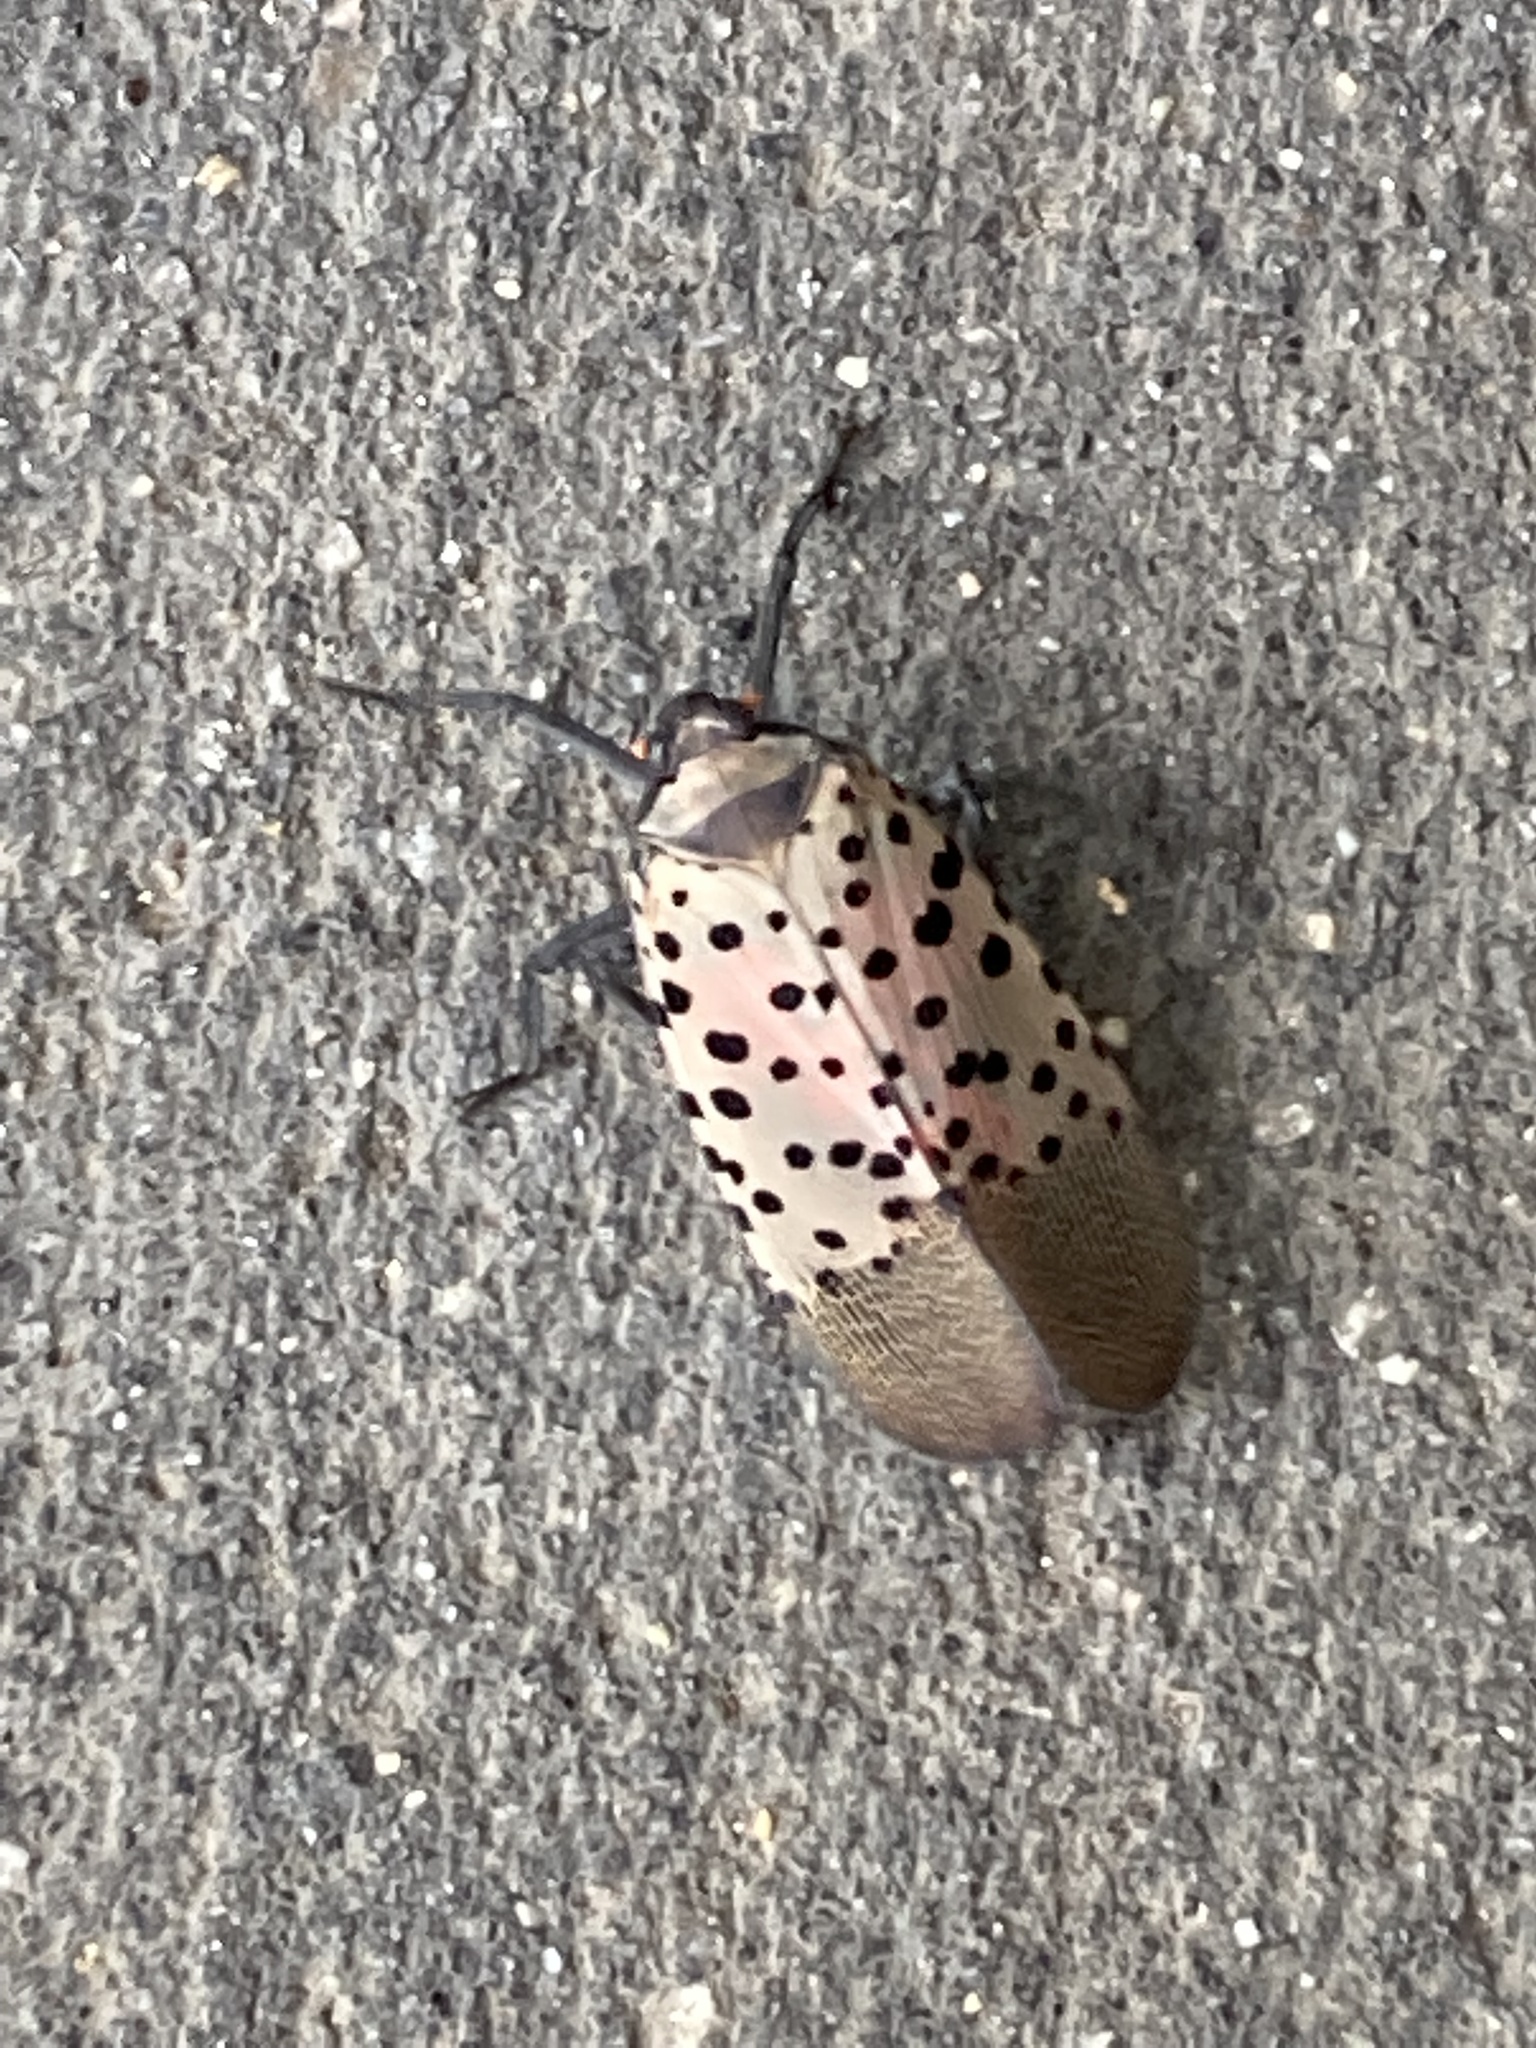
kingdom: Animalia
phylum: Arthropoda
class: Insecta
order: Hemiptera
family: Fulgoridae
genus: Lycorma
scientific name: Lycorma delicatula
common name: Spotted lanternfly
